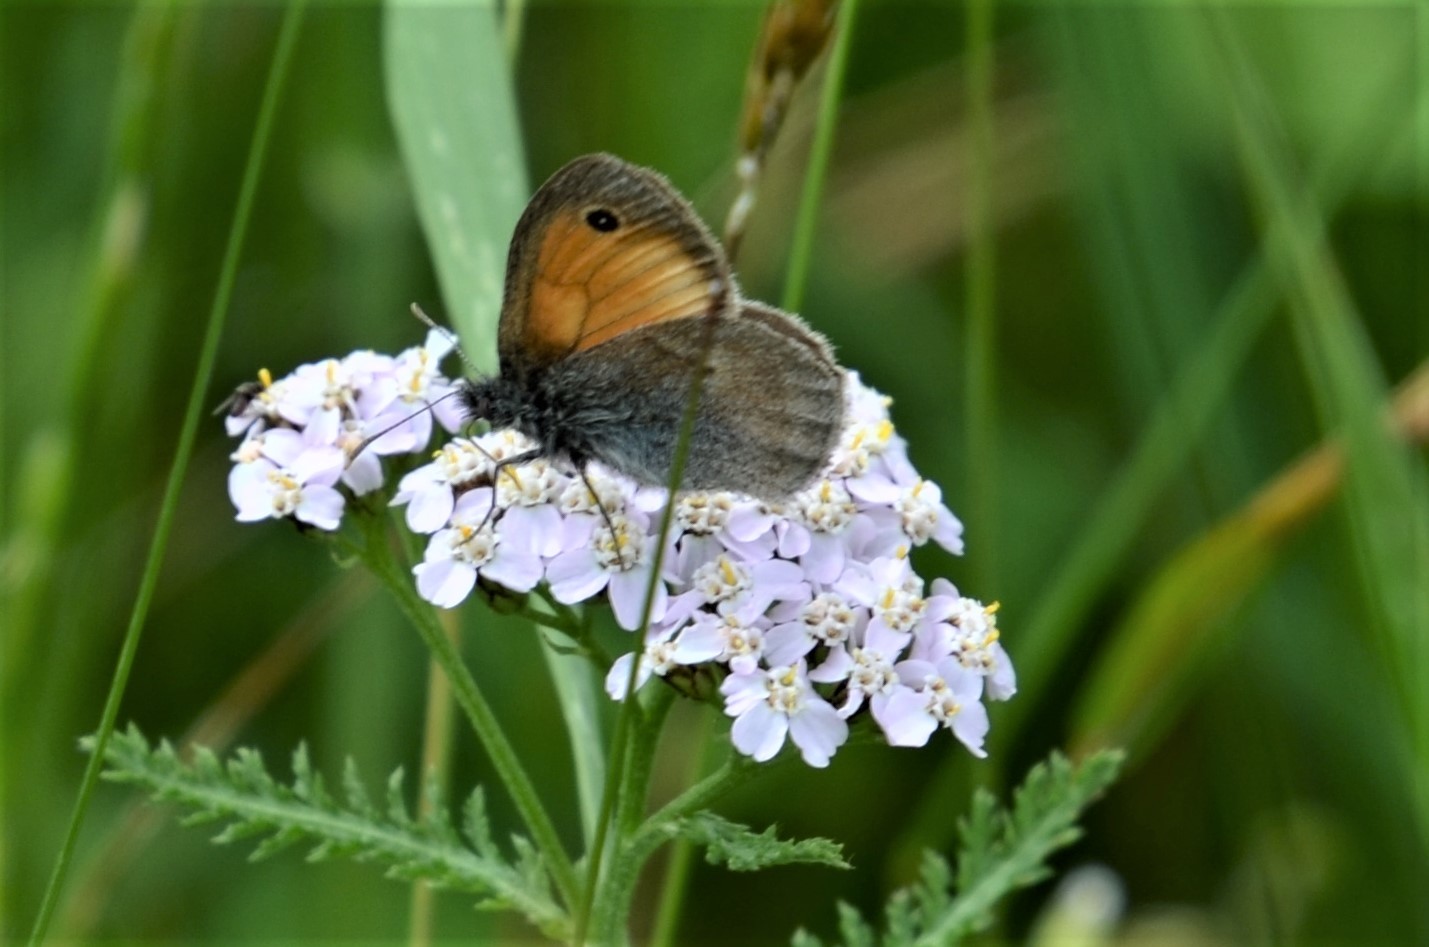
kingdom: Animalia
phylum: Arthropoda
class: Insecta
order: Lepidoptera
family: Nymphalidae
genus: Coenonympha
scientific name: Coenonympha pamphilus
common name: Small heath
